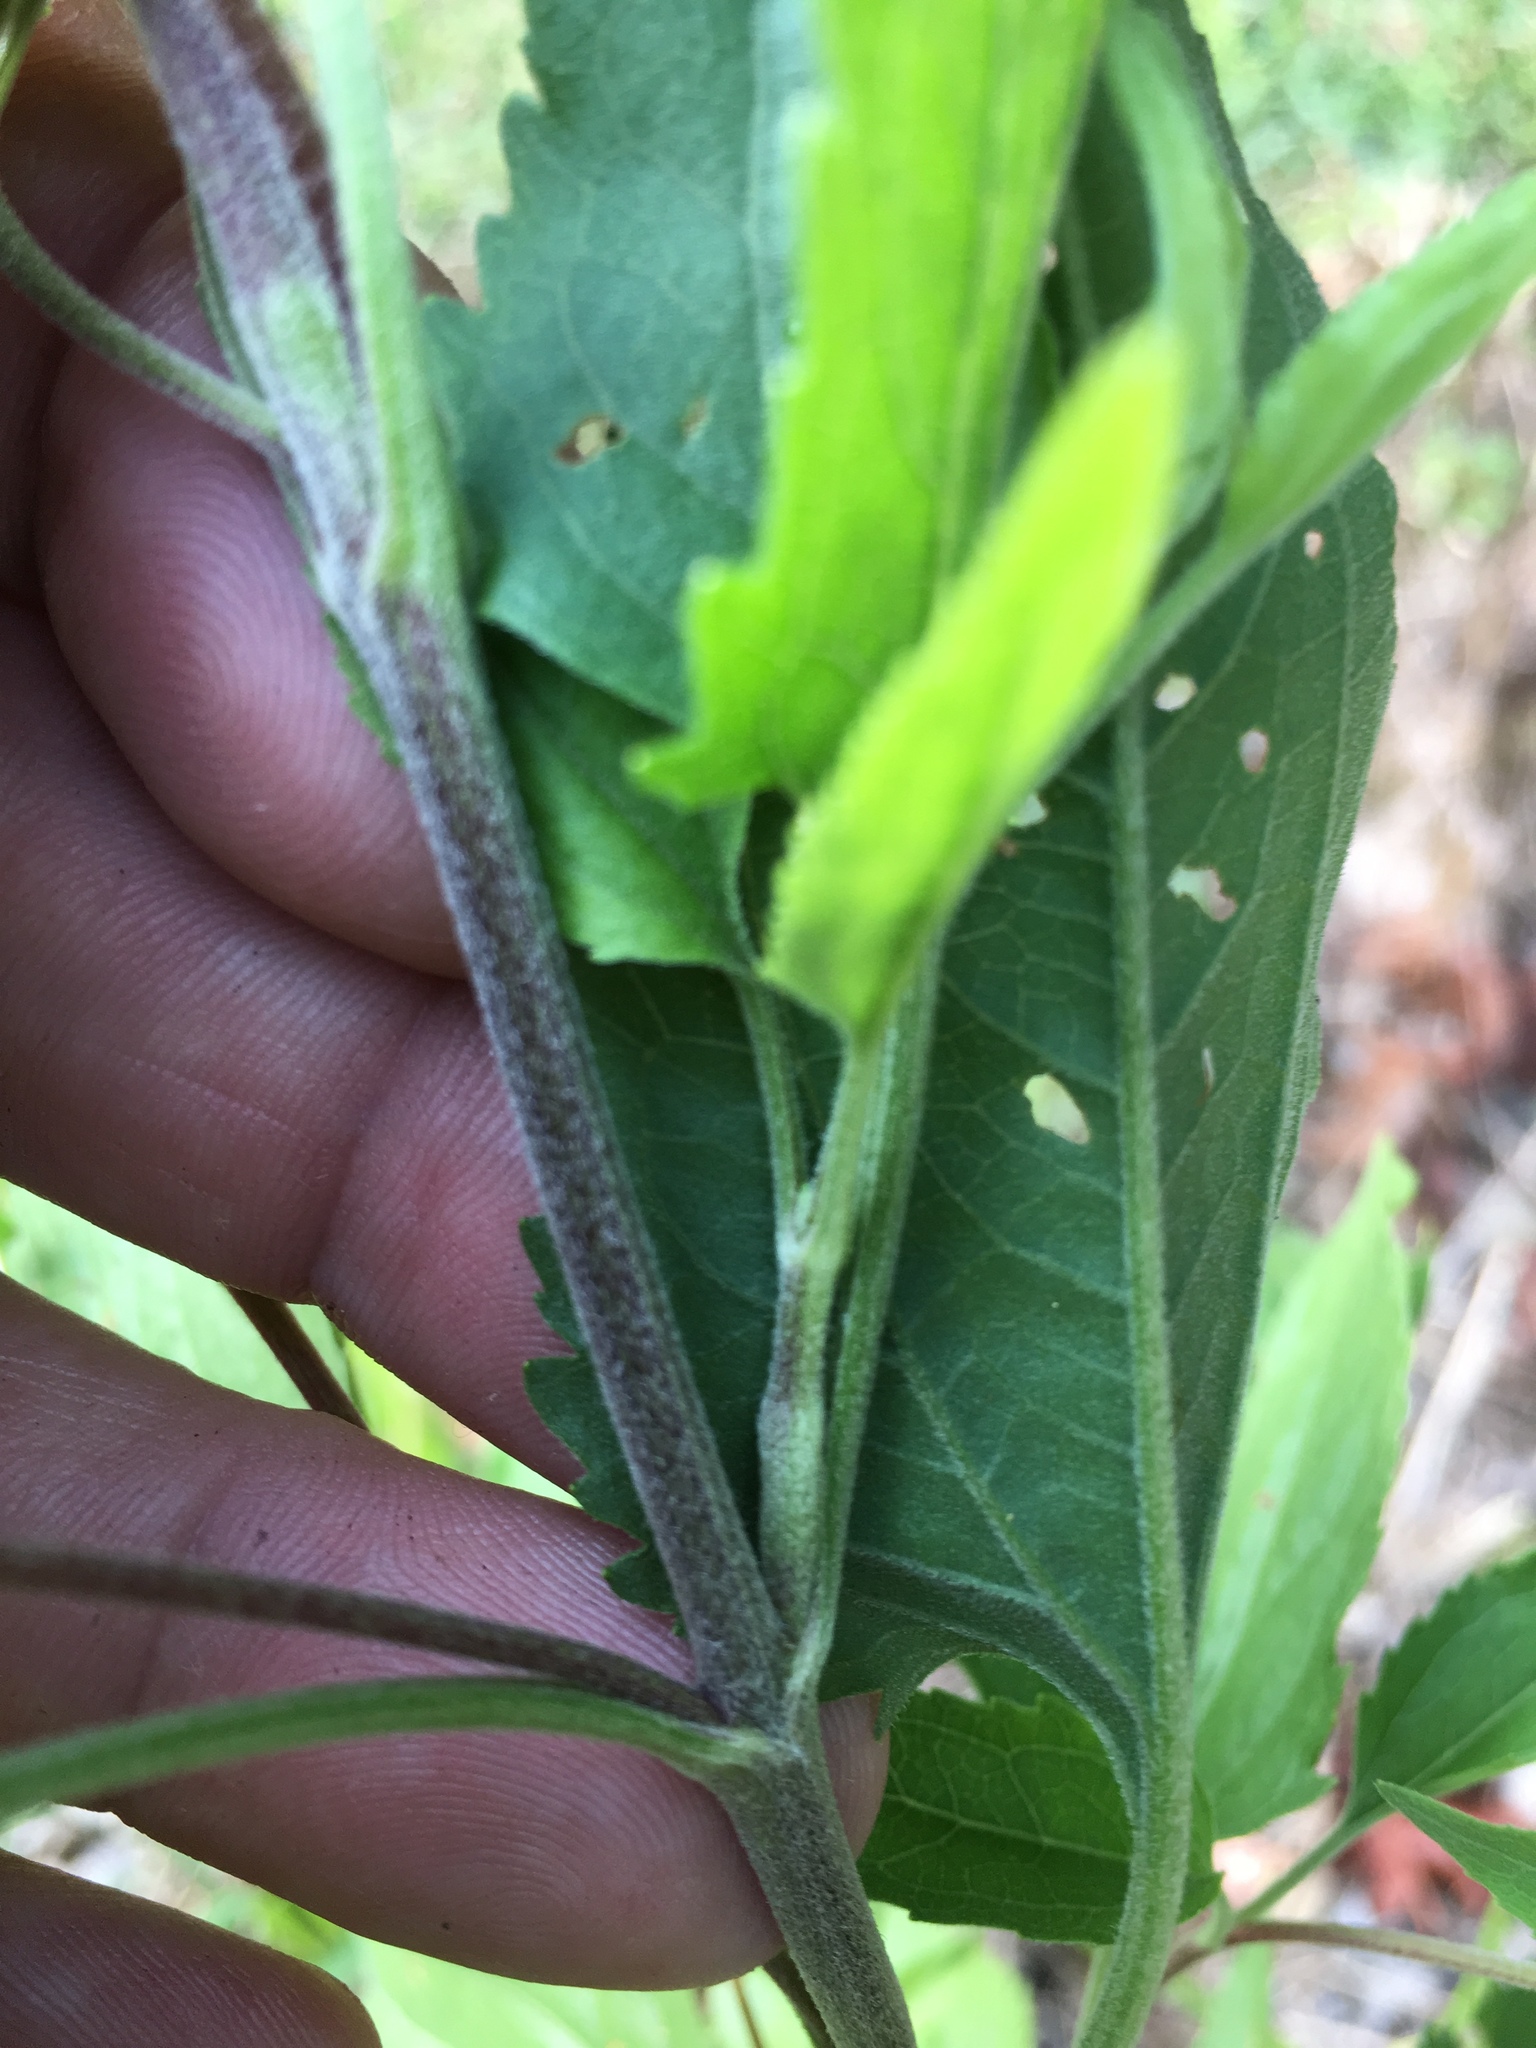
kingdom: Plantae
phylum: Tracheophyta
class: Magnoliopsida
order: Asterales
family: Asteraceae
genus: Eupatorium
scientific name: Eupatorium serotinum
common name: Late boneset
